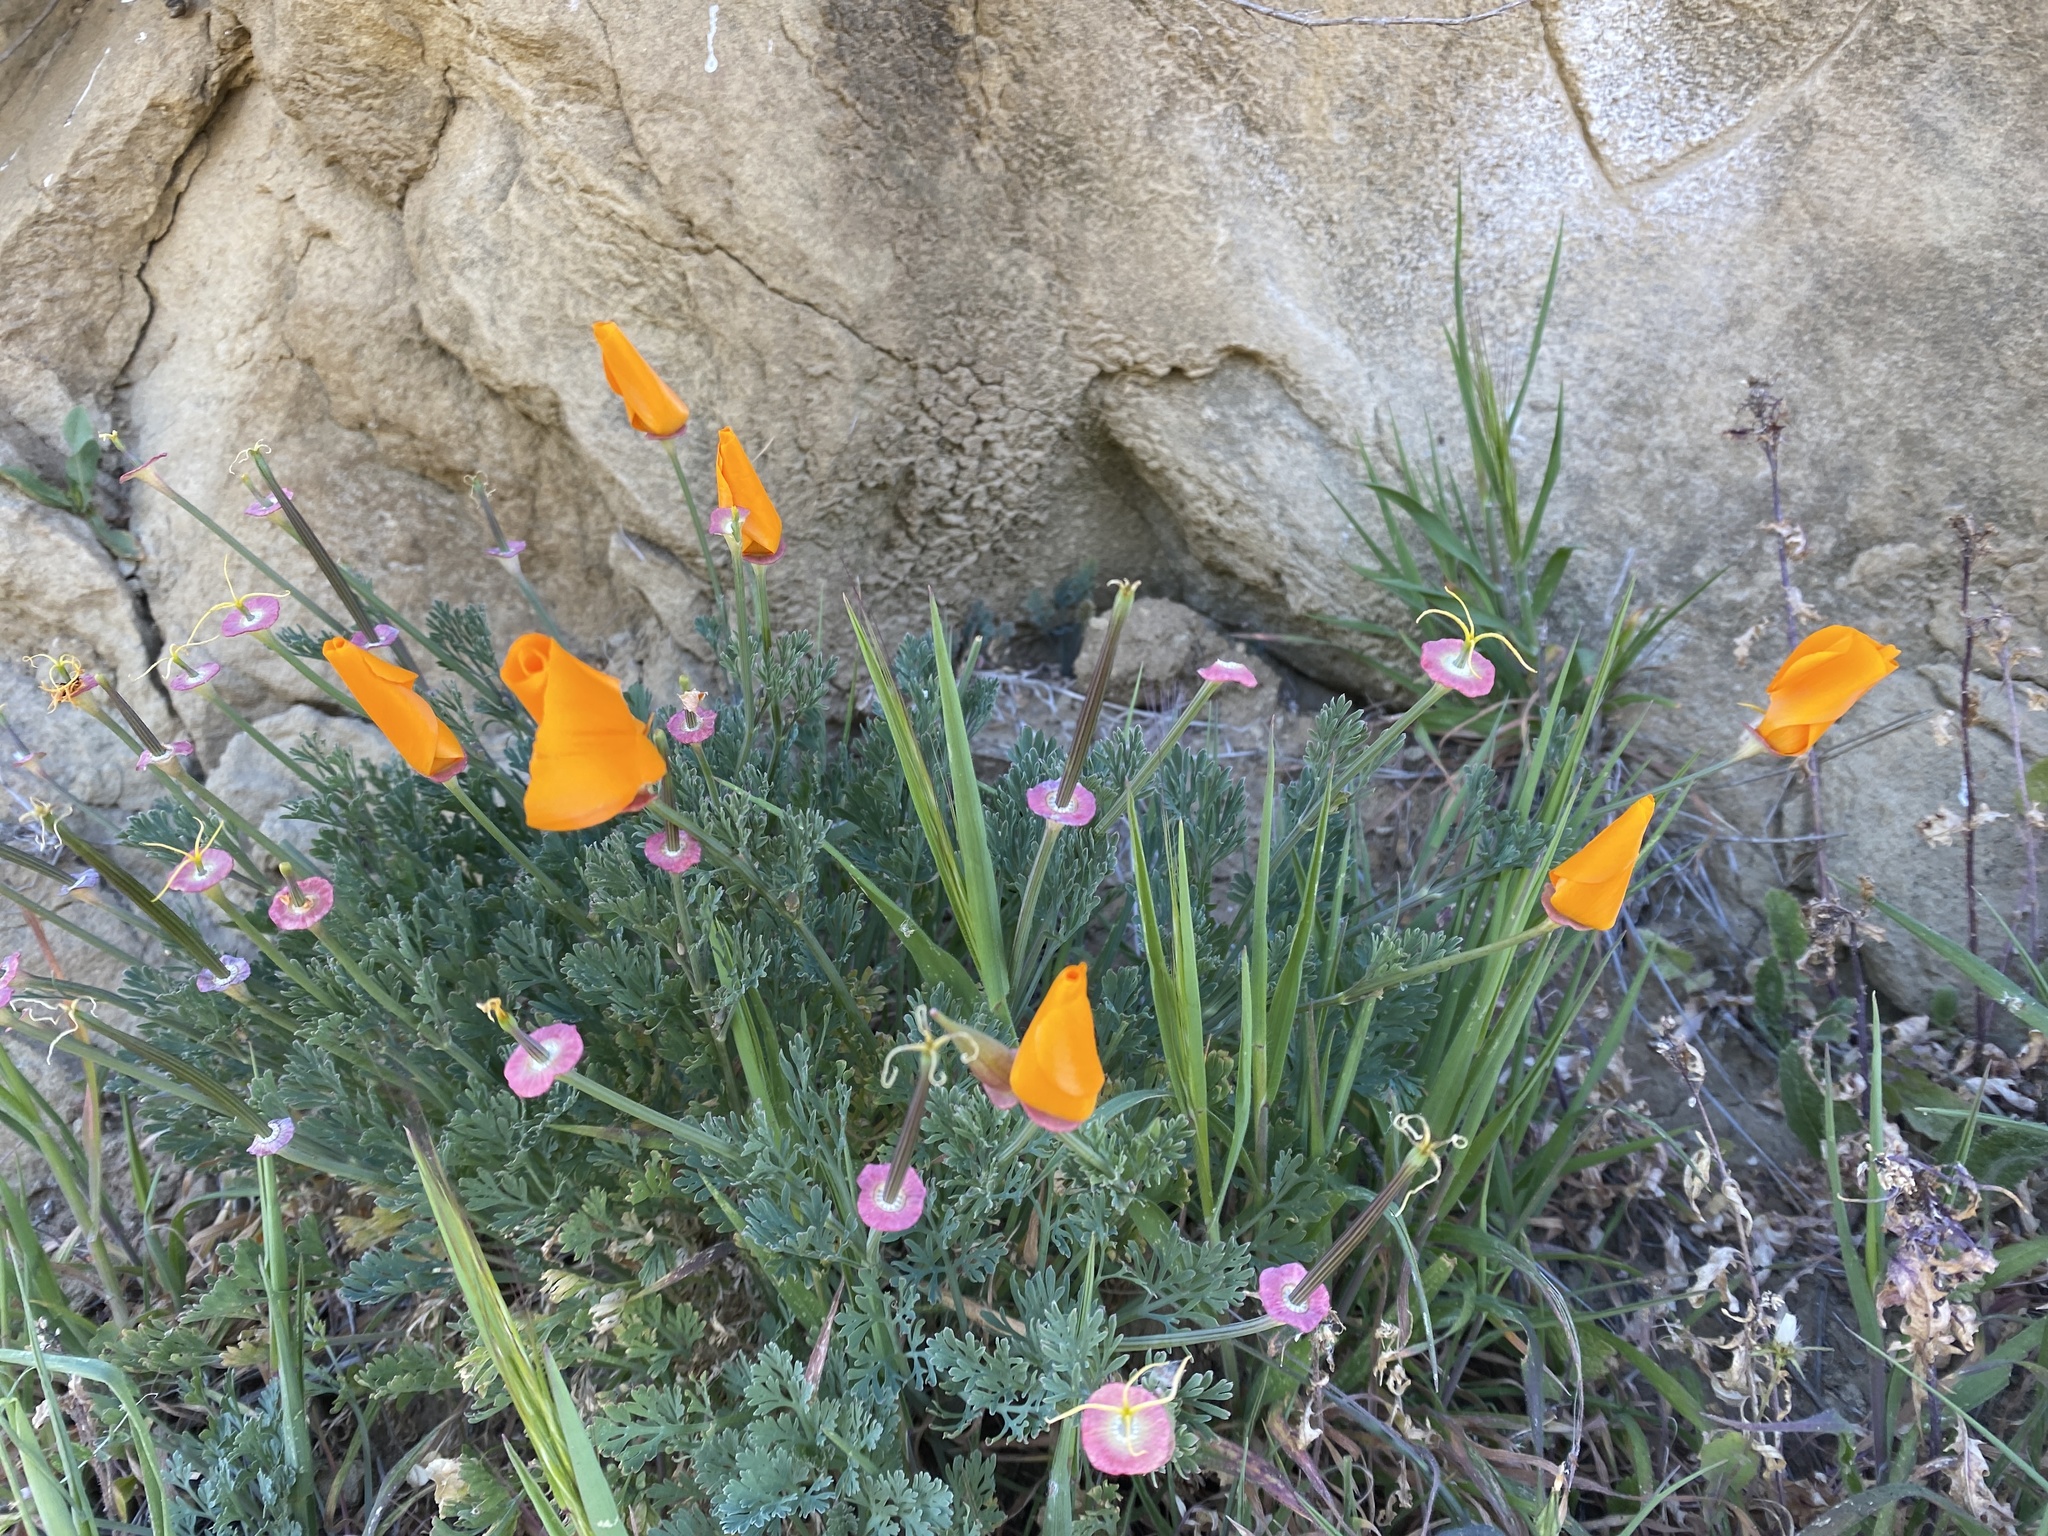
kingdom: Plantae
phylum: Tracheophyta
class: Magnoliopsida
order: Ranunculales
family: Papaveraceae
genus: Eschscholzia
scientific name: Eschscholzia californica
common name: California poppy
